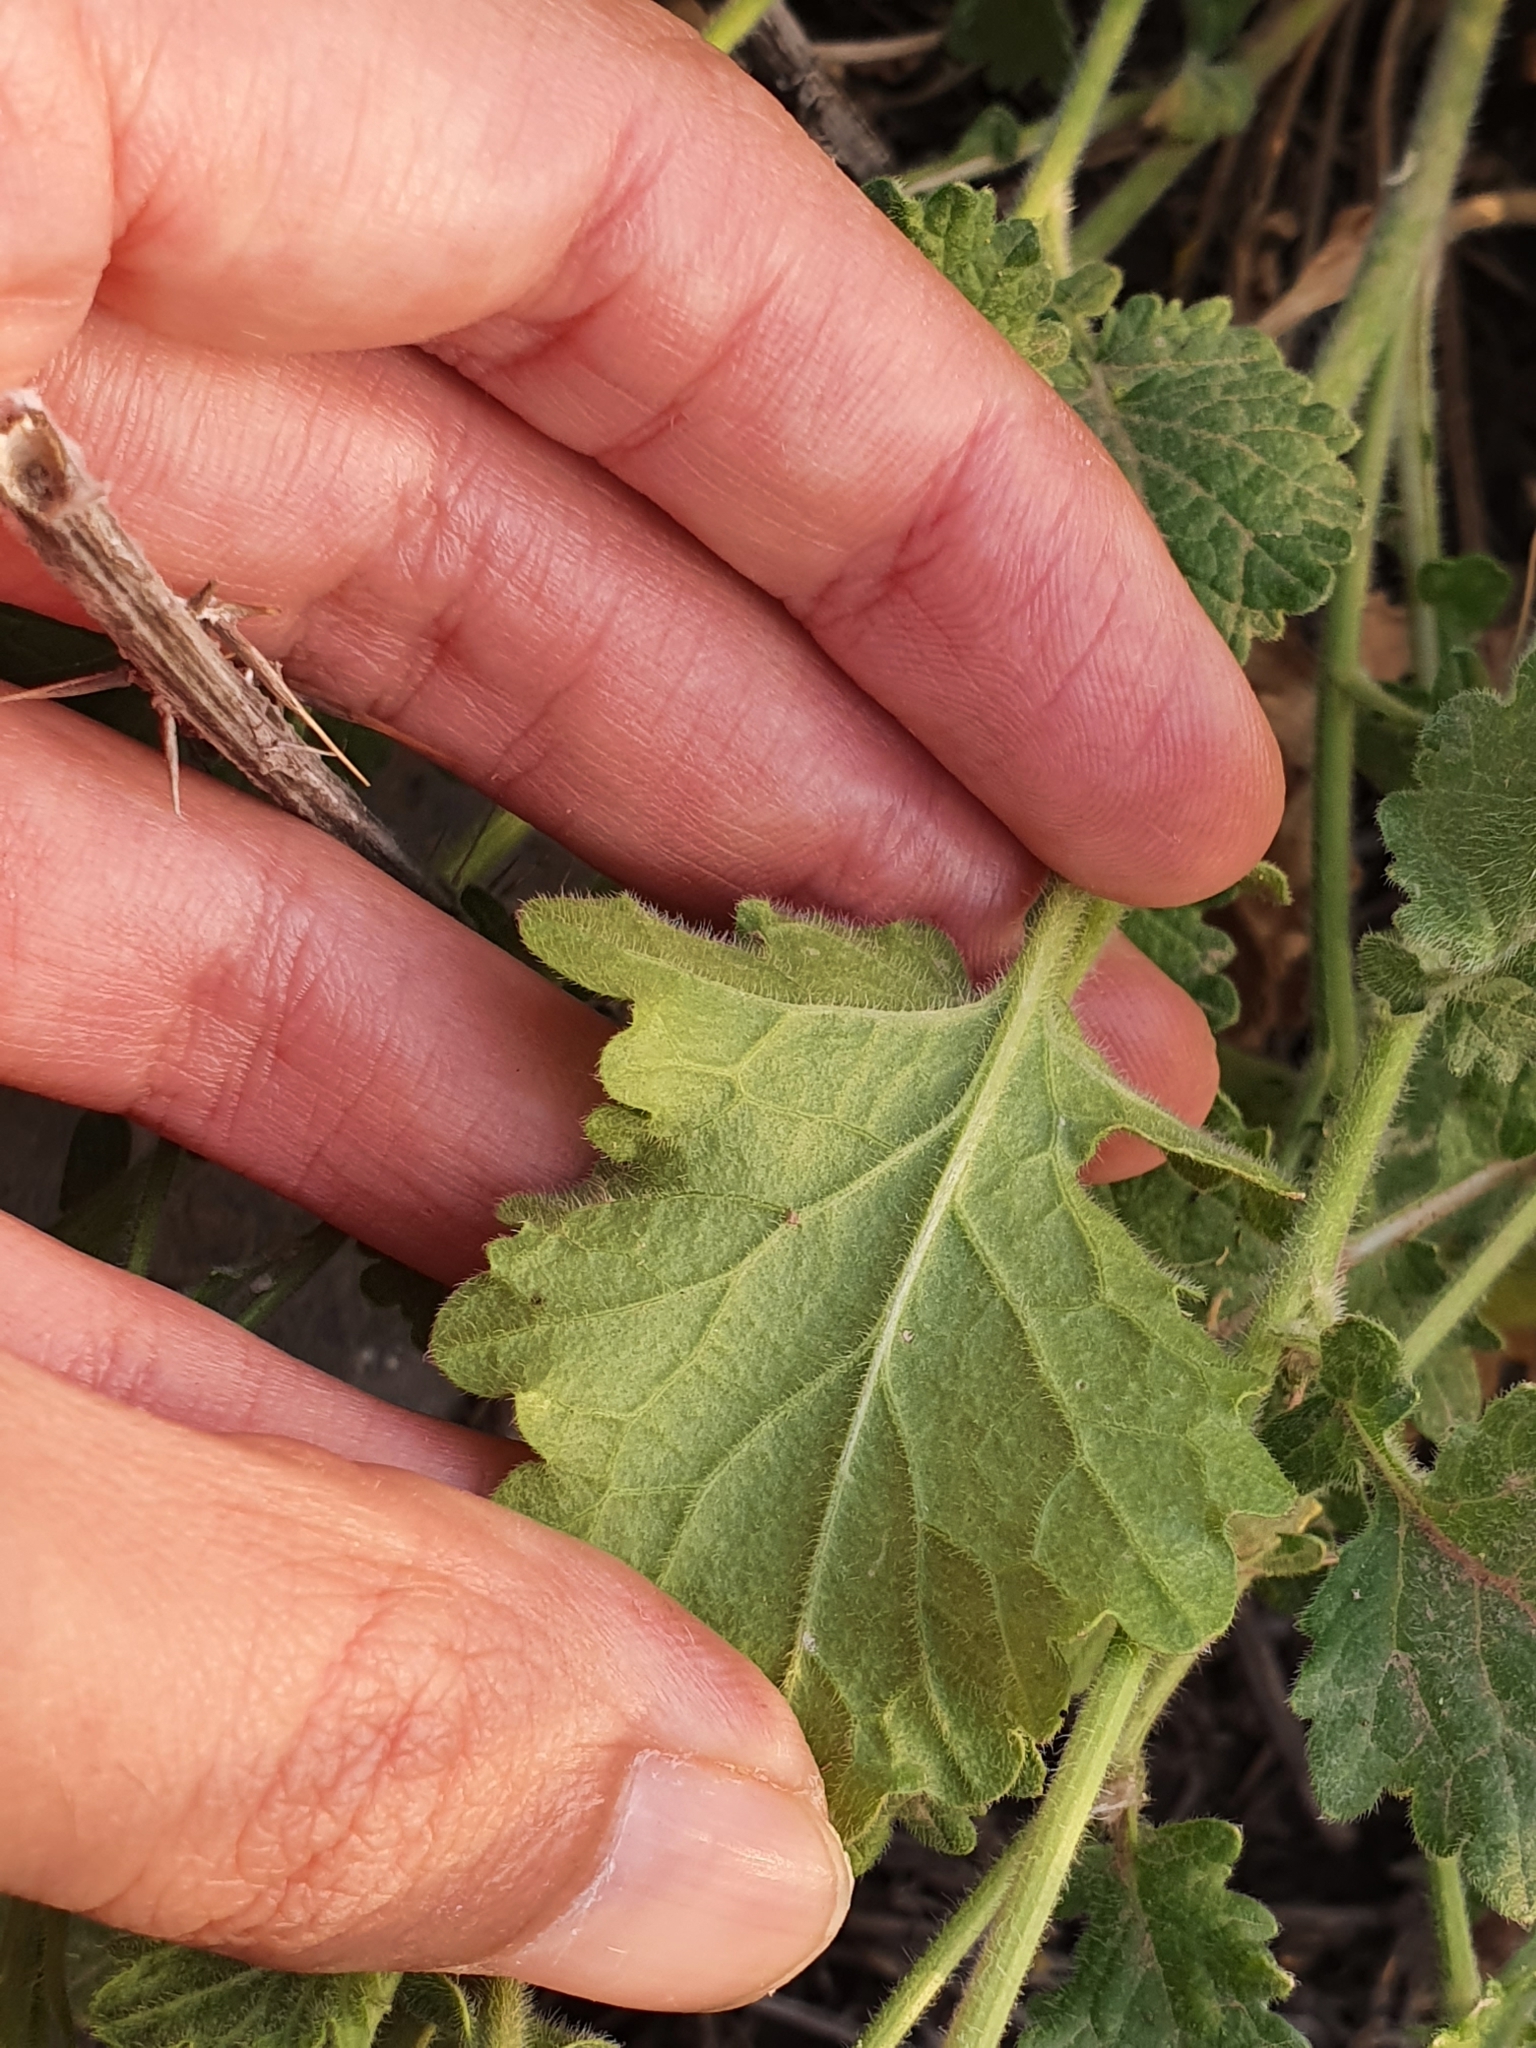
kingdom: Plantae
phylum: Tracheophyta
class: Magnoliopsida
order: Brassicales
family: Brassicaceae
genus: Sinapis
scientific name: Sinapis pubescens
